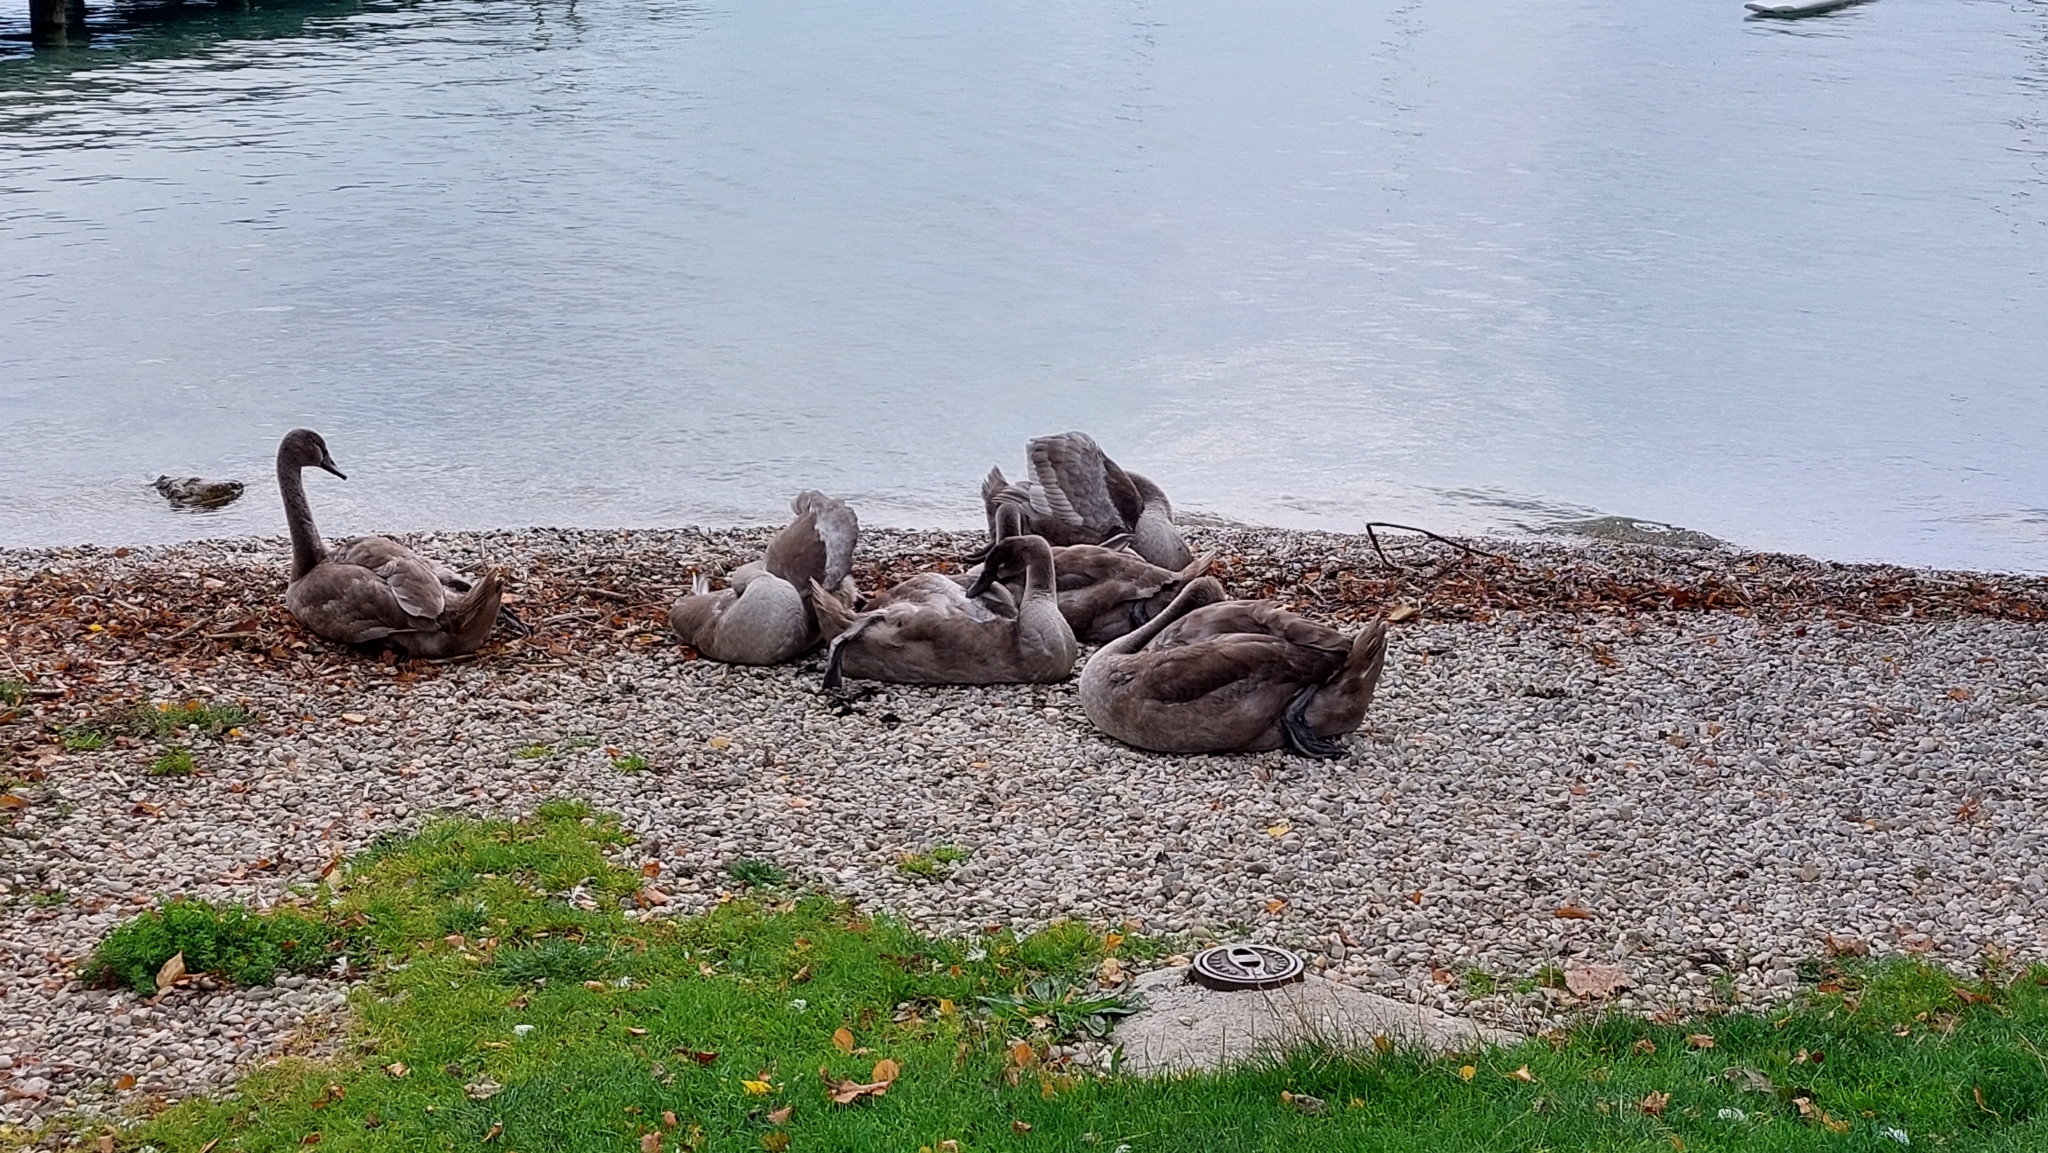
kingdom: Animalia
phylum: Chordata
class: Aves
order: Anseriformes
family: Anatidae
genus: Cygnus
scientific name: Cygnus olor
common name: Mute swan
